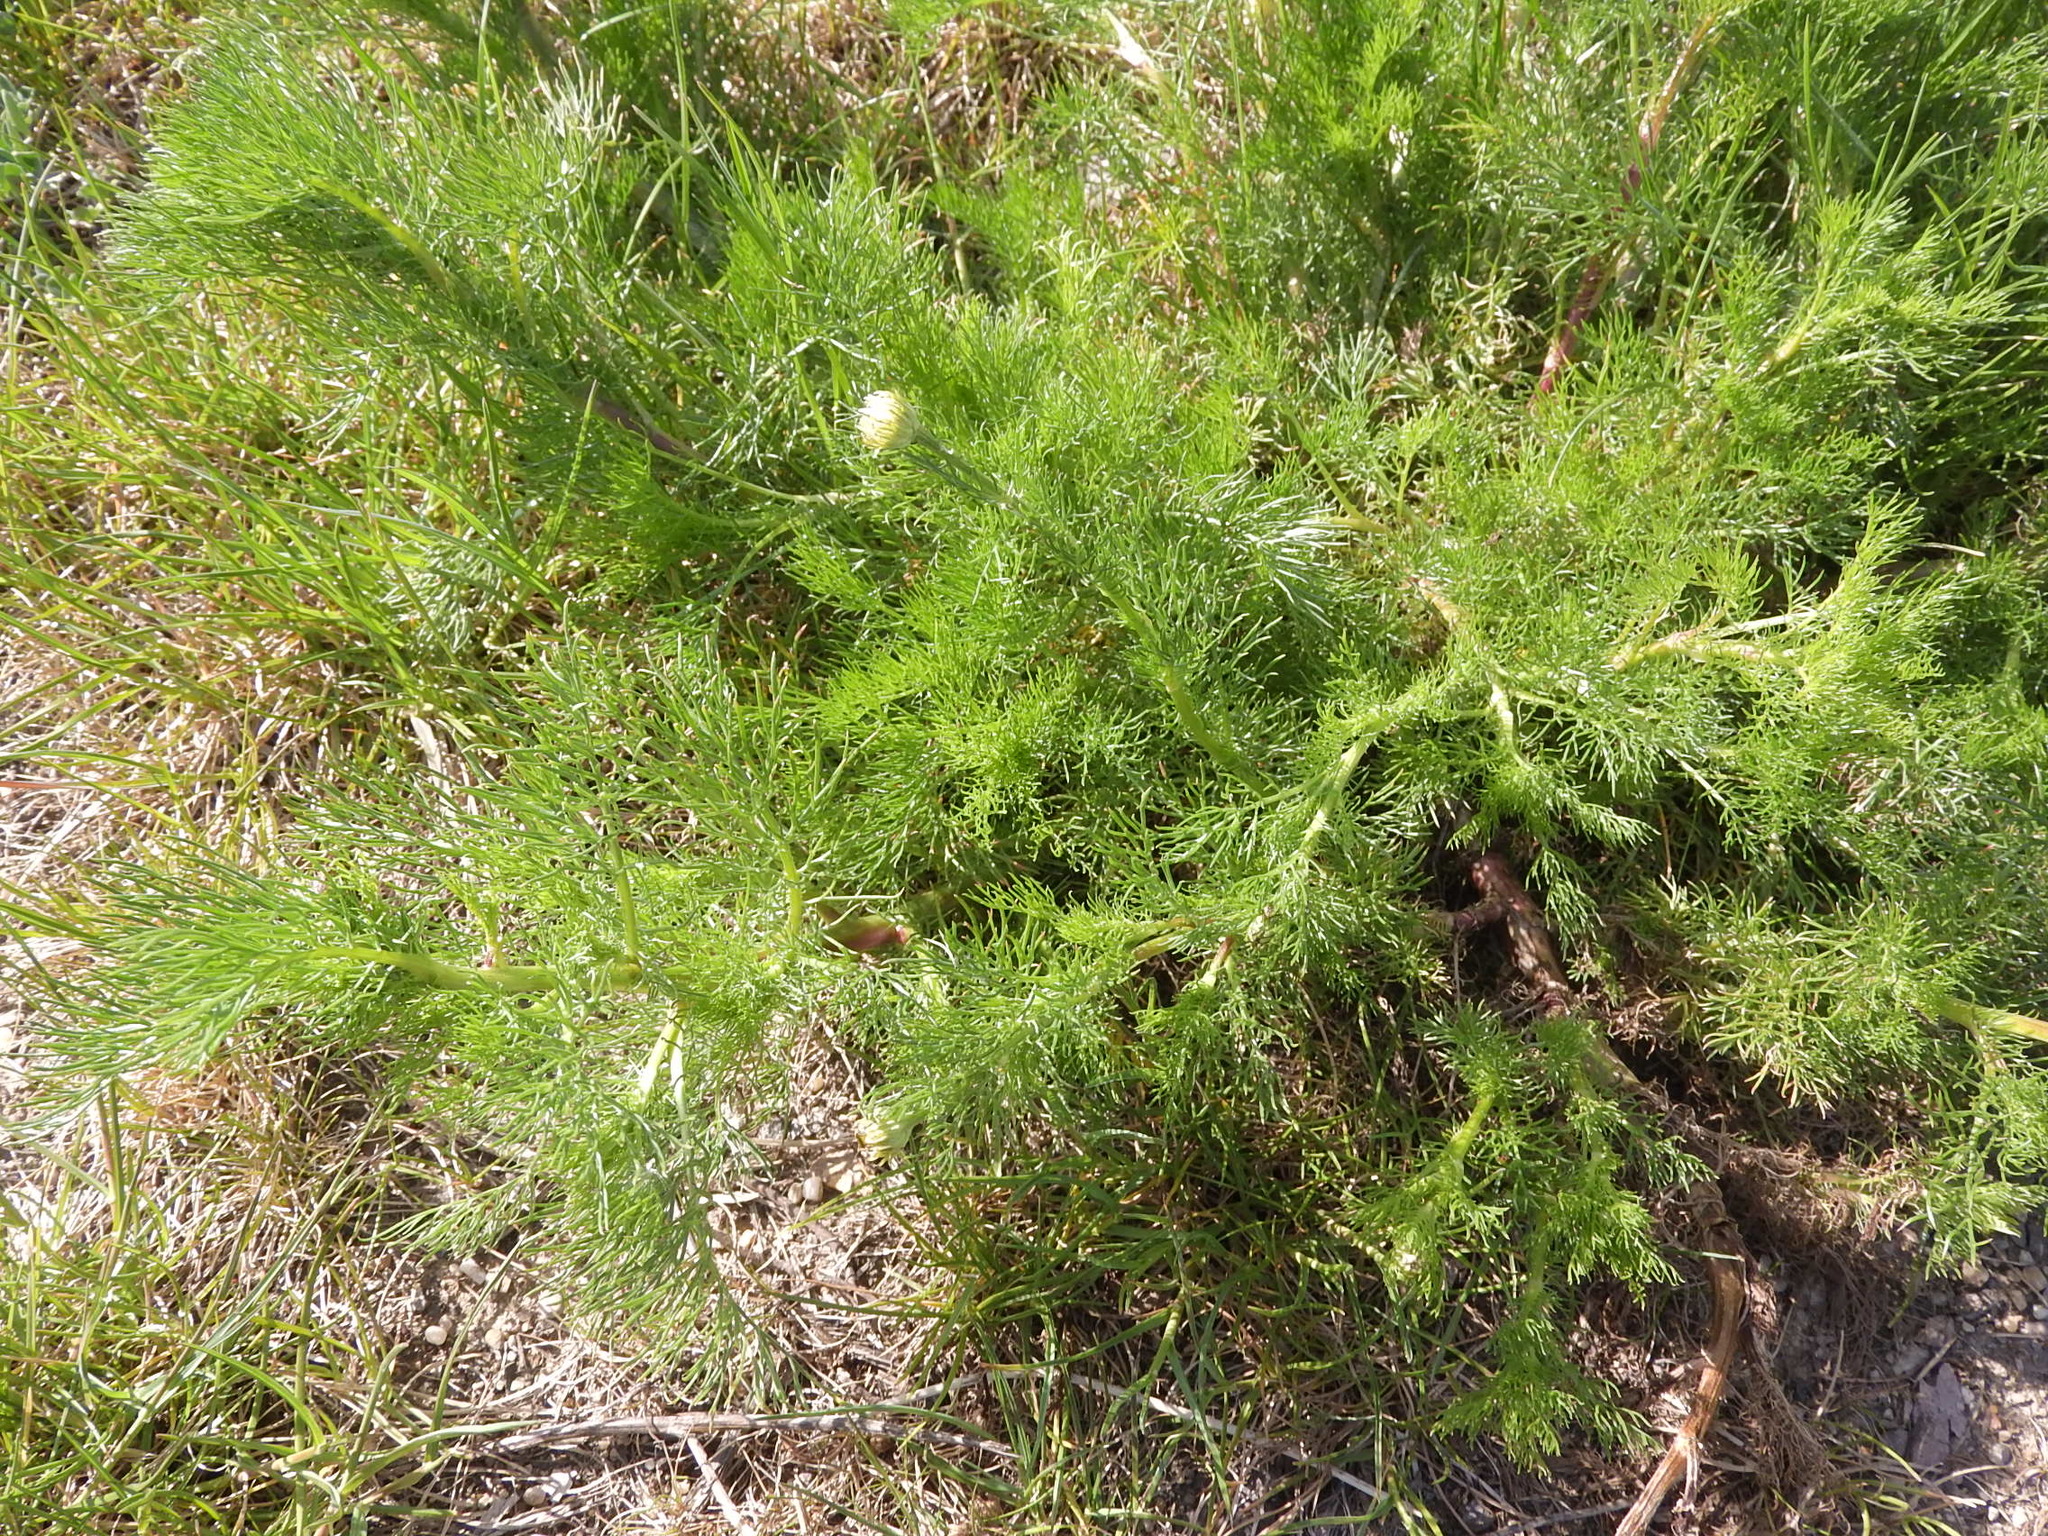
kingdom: Plantae
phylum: Tracheophyta
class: Magnoliopsida
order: Asterales
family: Asteraceae
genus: Tripleurospermum
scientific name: Tripleurospermum inodorum
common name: Scentless mayweed
